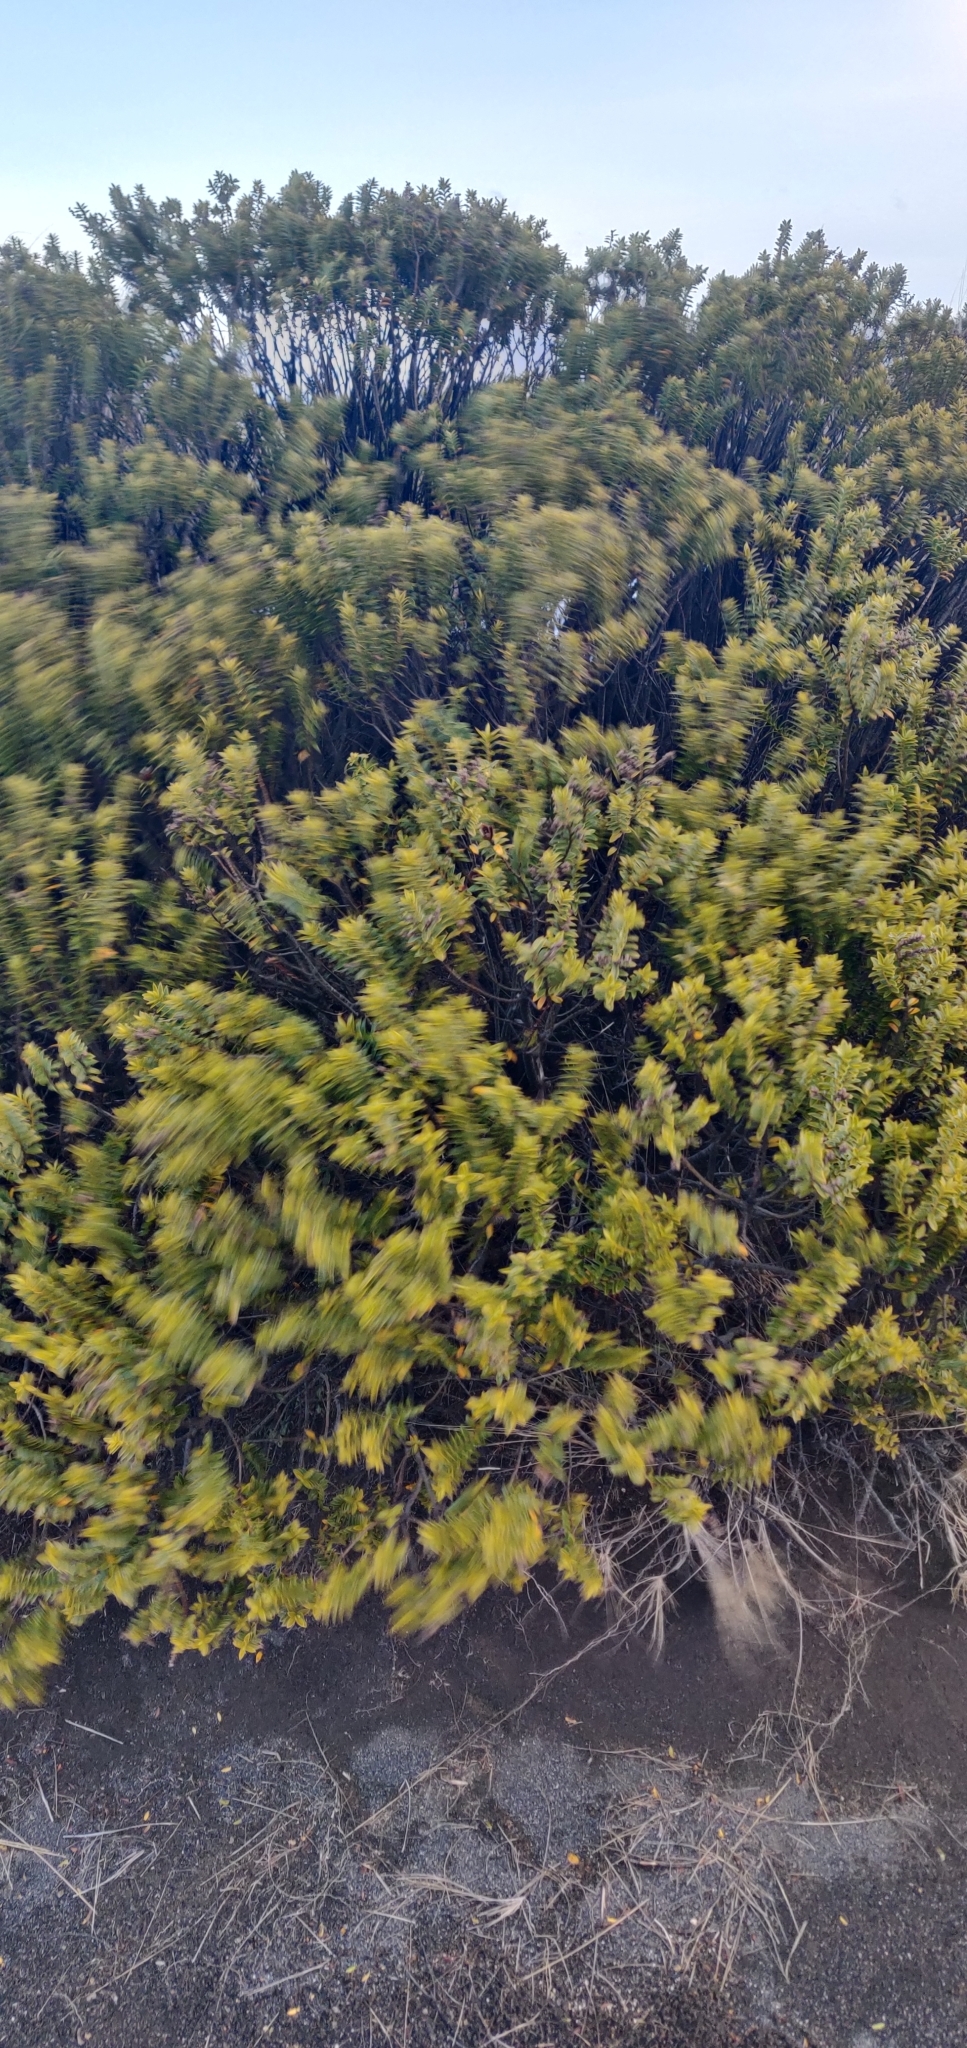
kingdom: Plantae
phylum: Tracheophyta
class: Magnoliopsida
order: Lamiales
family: Plantaginaceae
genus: Veronica
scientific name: Veronica venustula
